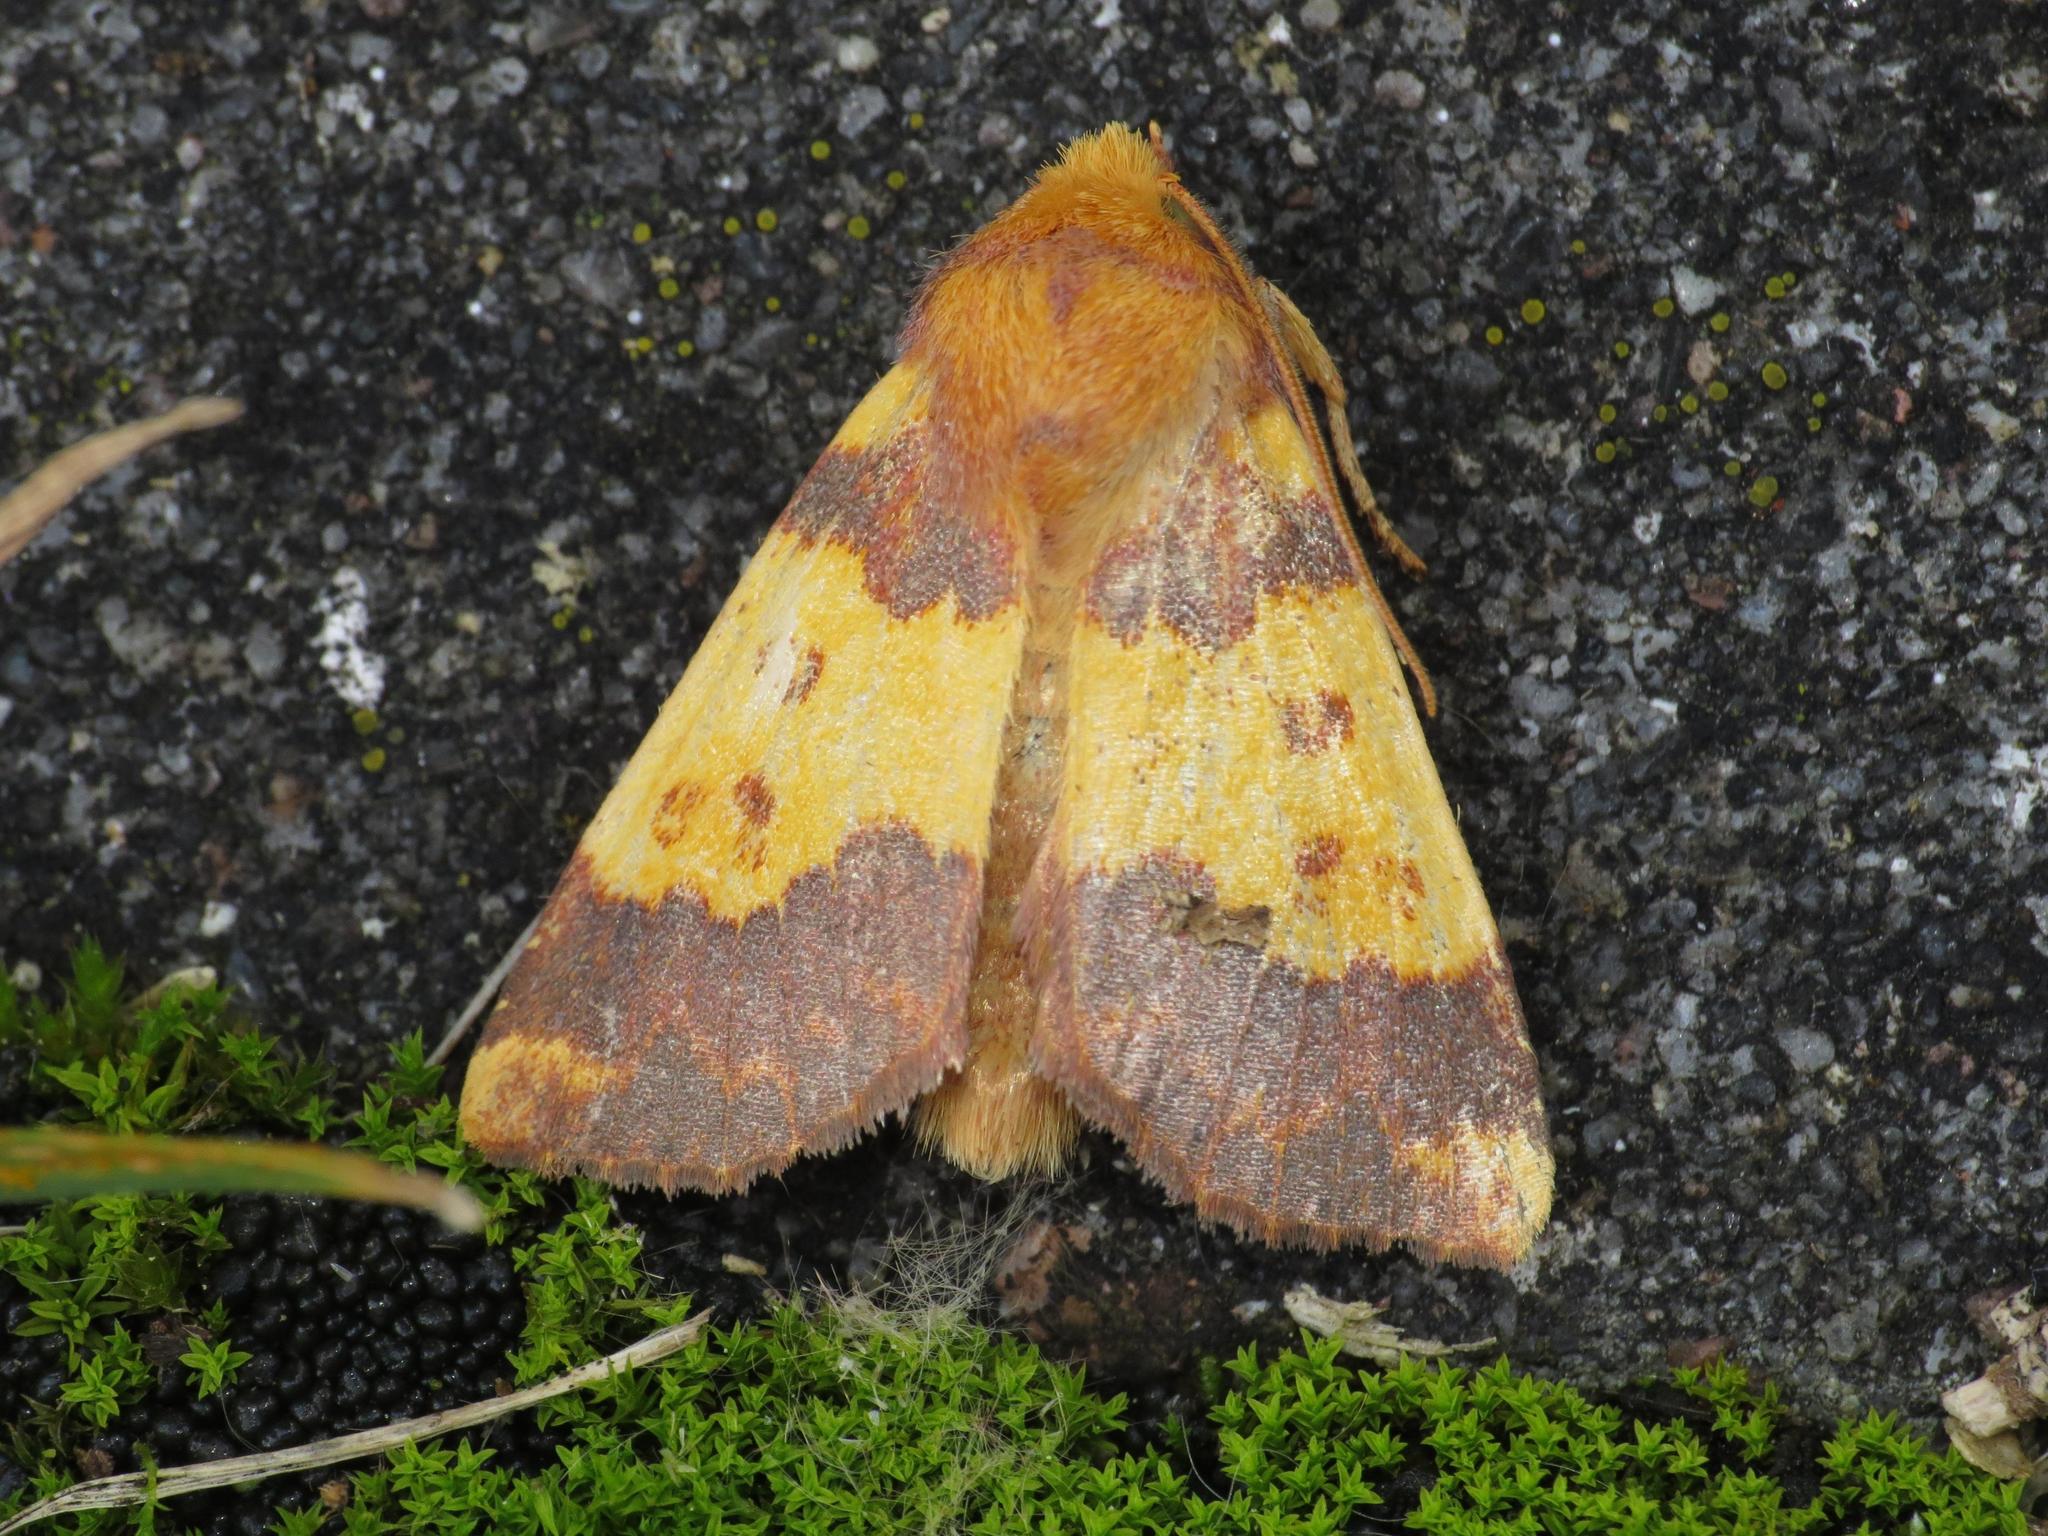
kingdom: Animalia
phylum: Arthropoda
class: Insecta
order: Lepidoptera
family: Noctuidae
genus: Tiliacea
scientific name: Tiliacea aurago
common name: Barred sallow
